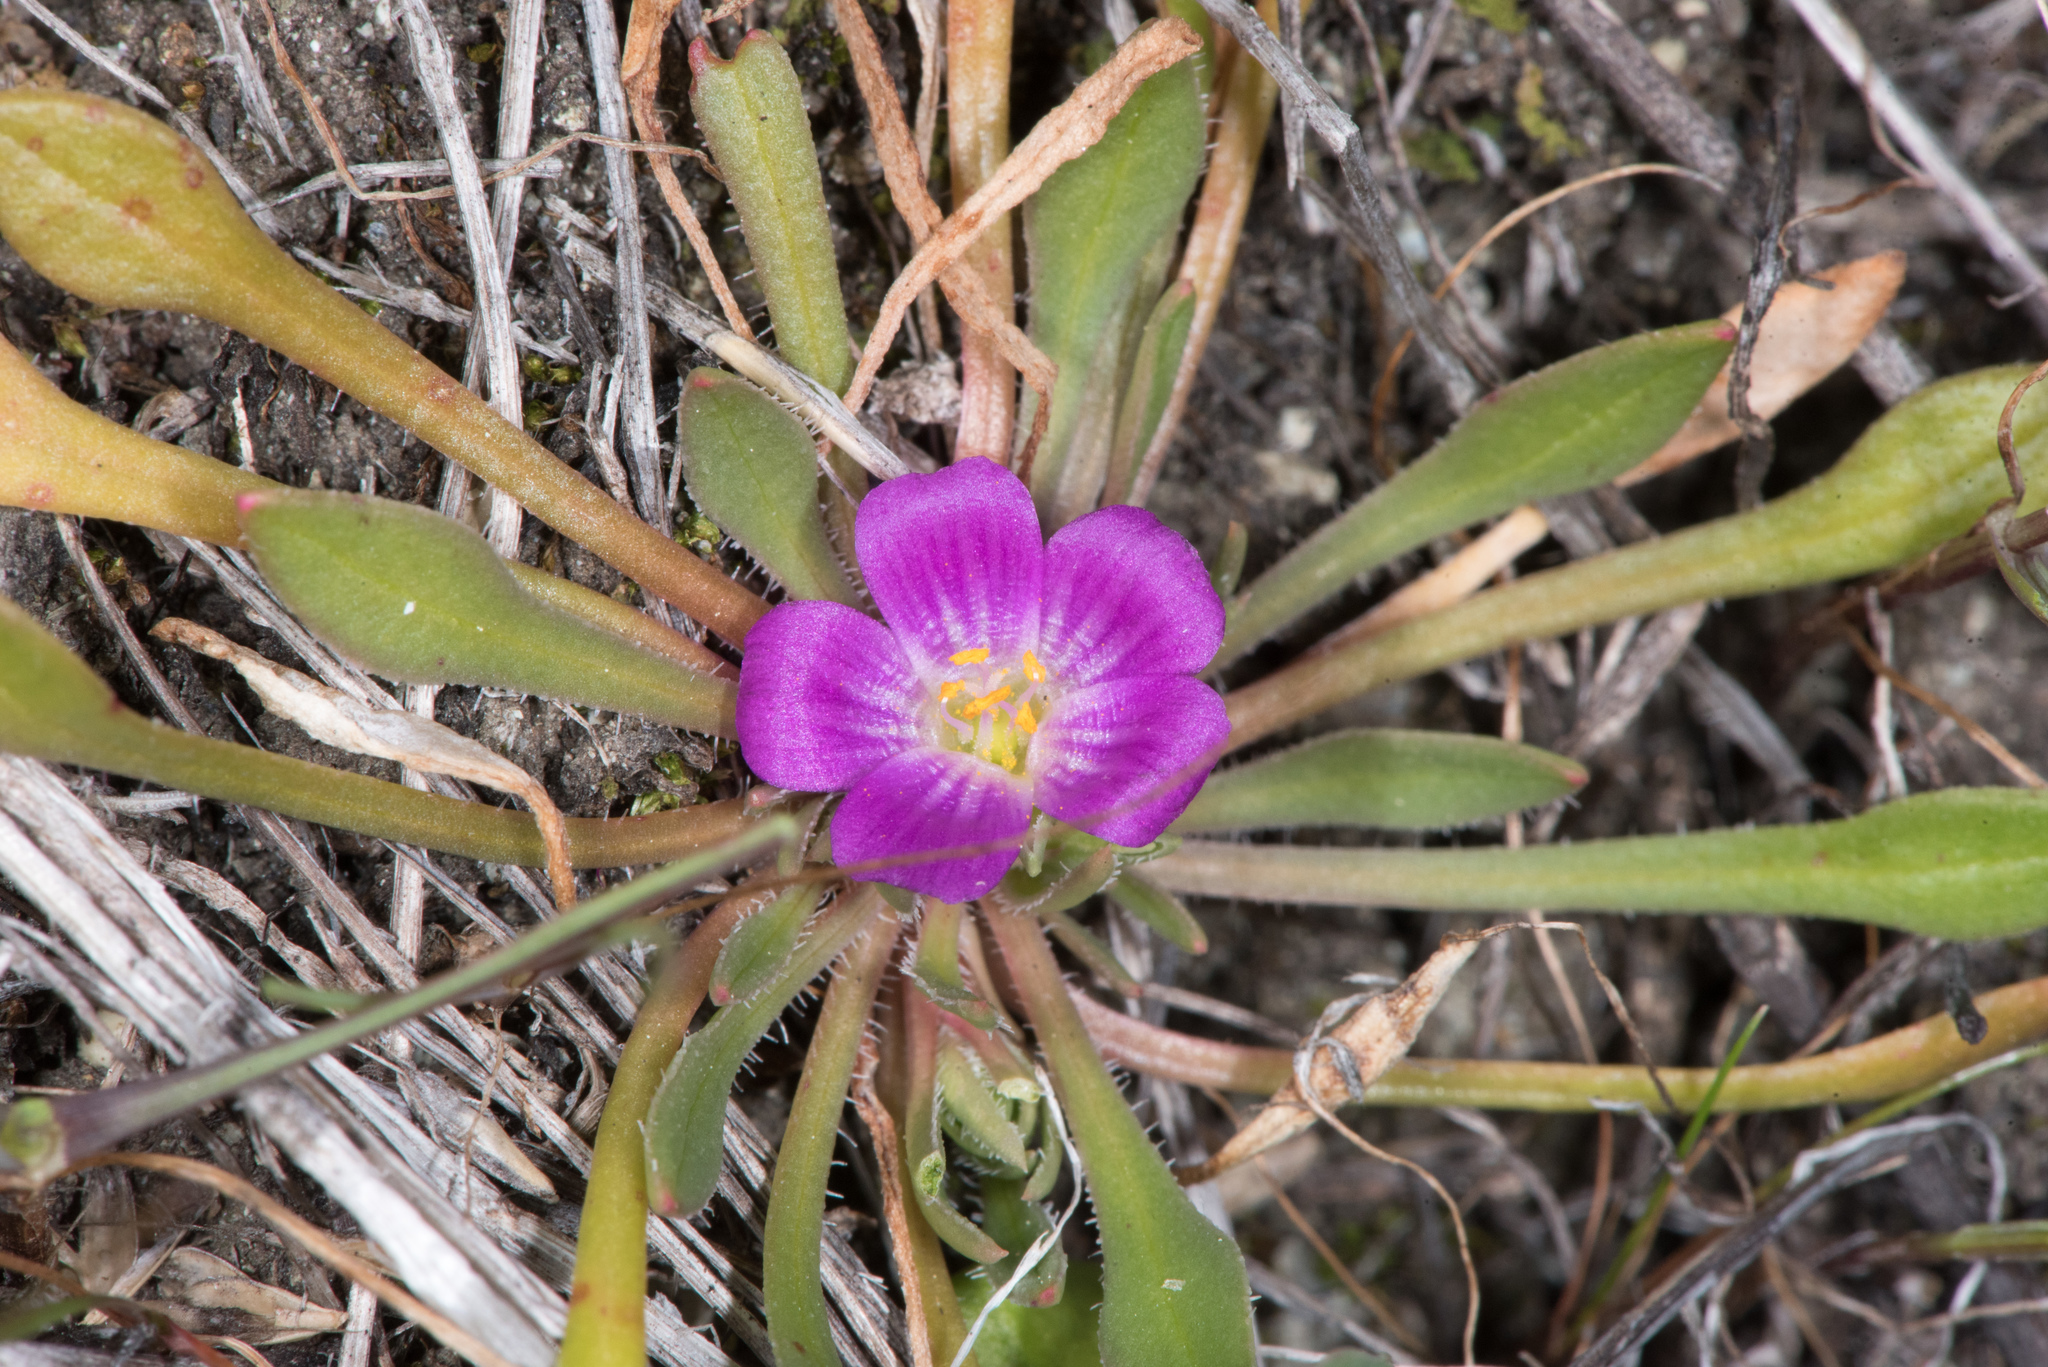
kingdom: Plantae
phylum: Tracheophyta
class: Magnoliopsida
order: Caryophyllales
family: Montiaceae
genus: Calandrinia
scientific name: Calandrinia menziesii
